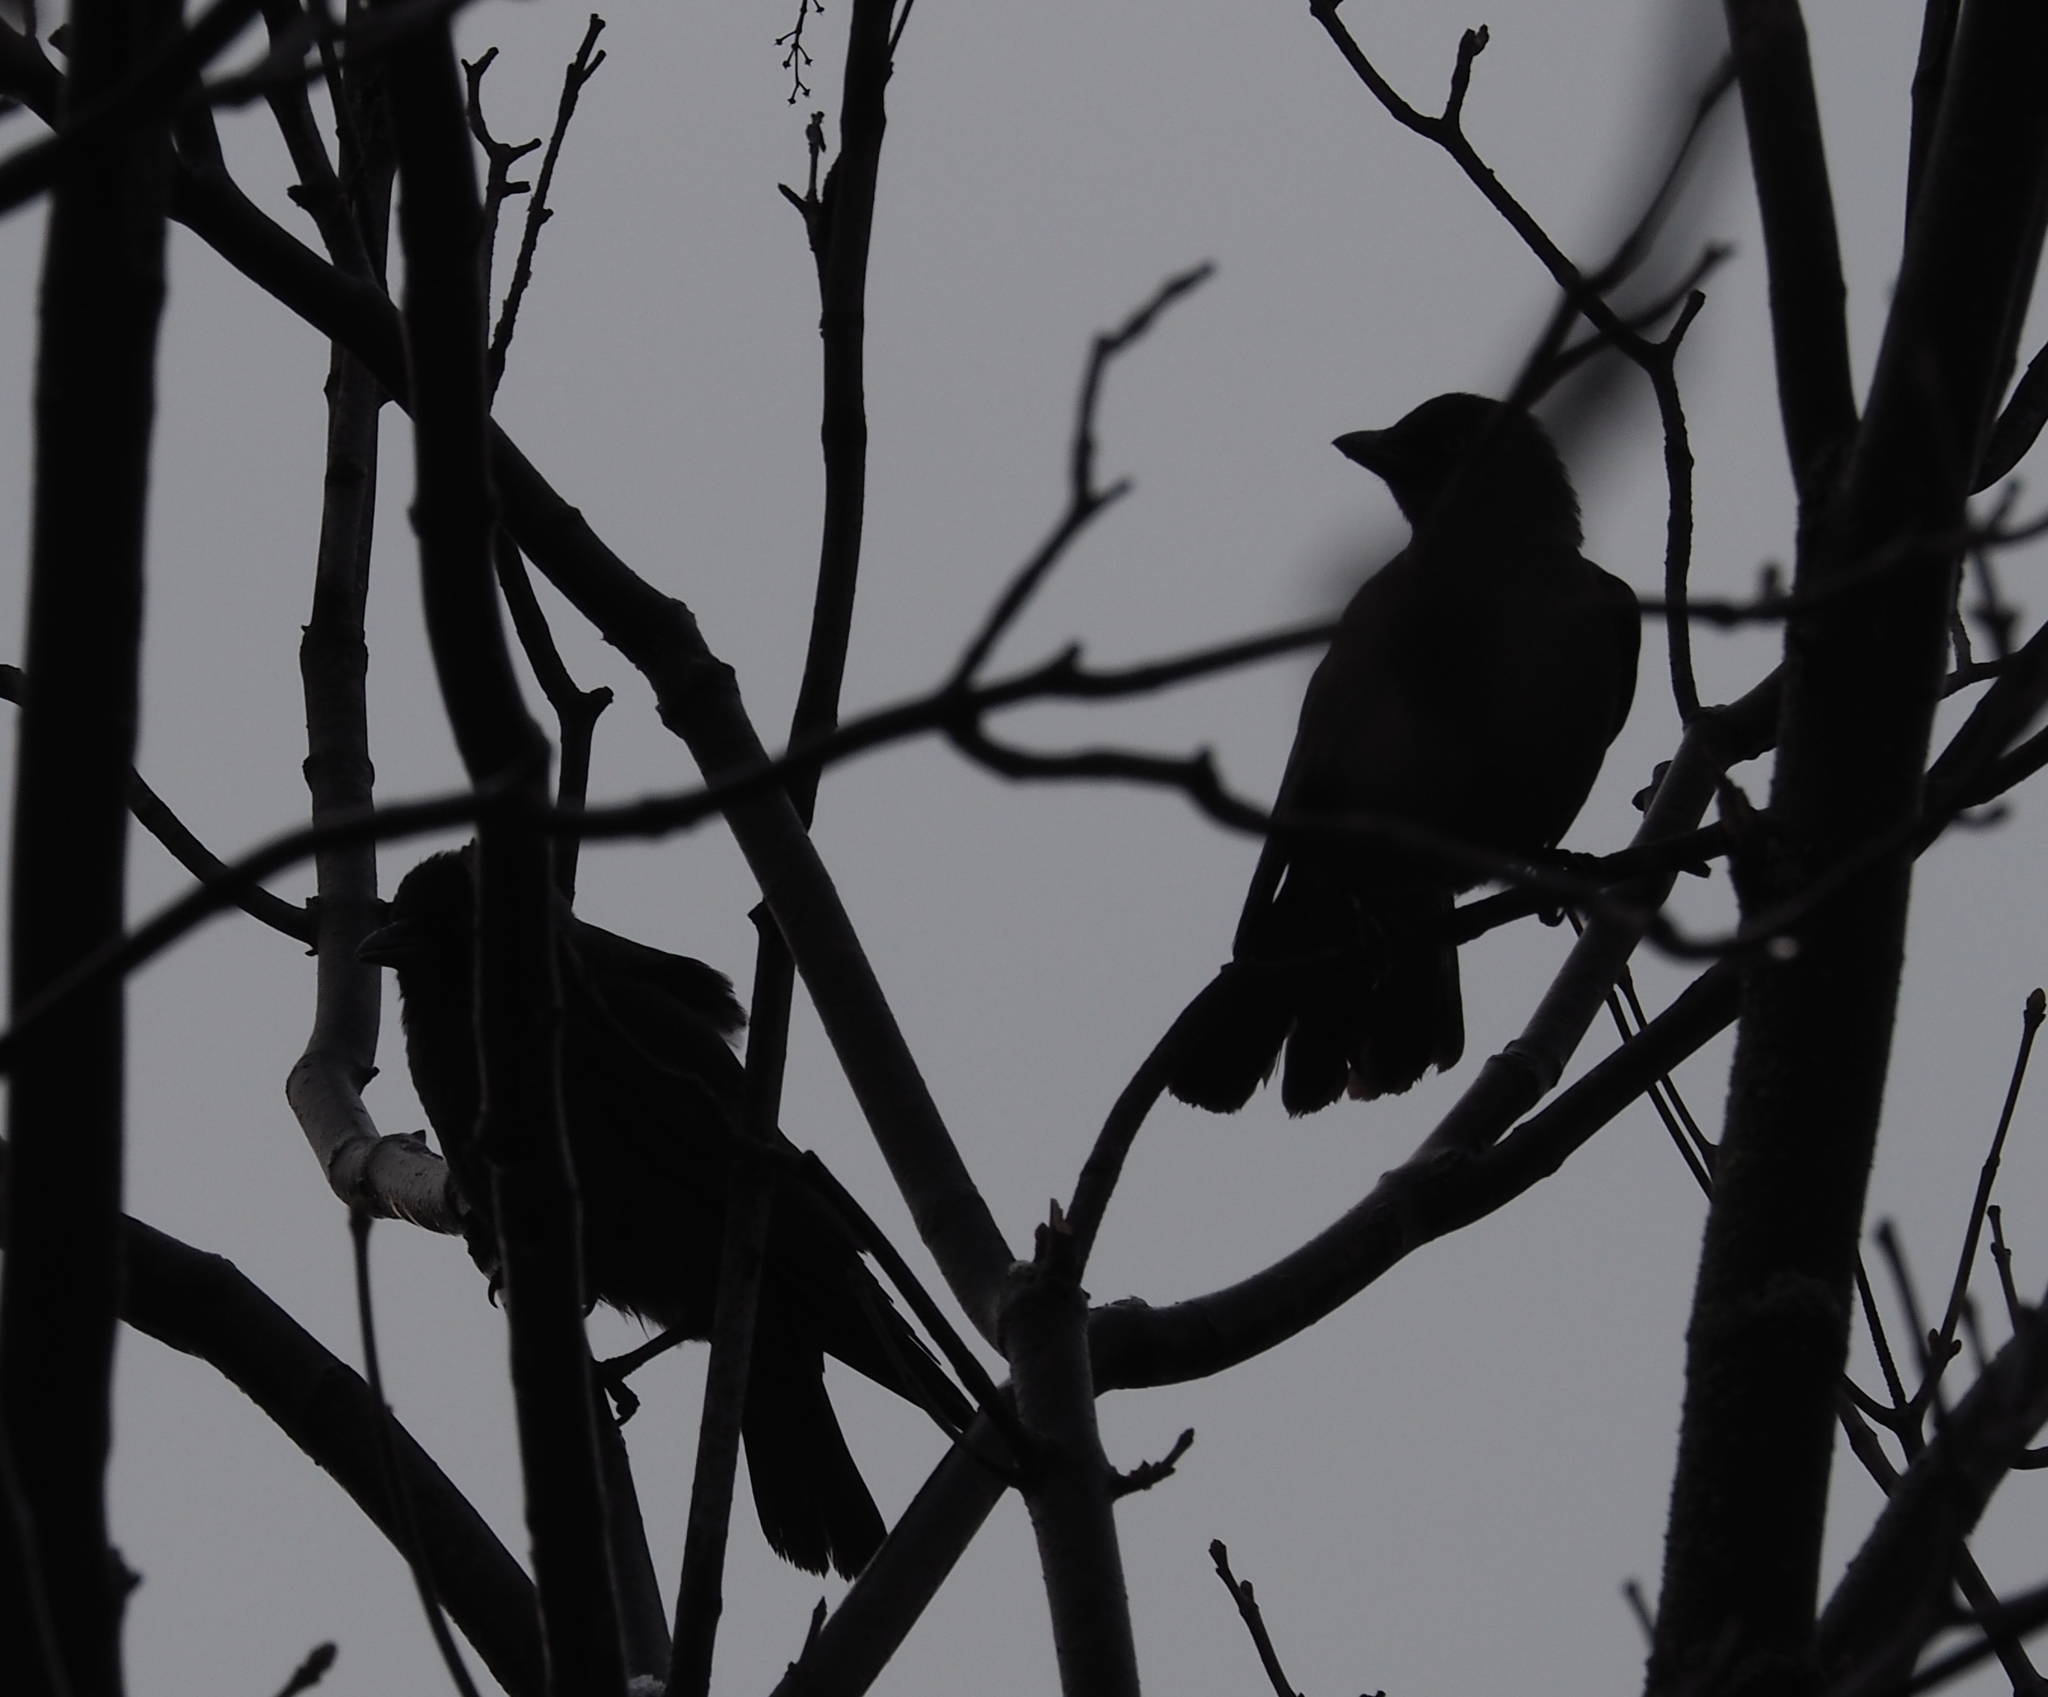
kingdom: Animalia
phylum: Chordata
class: Aves
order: Passeriformes
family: Corvidae
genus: Coloeus
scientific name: Coloeus monedula
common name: Western jackdaw
